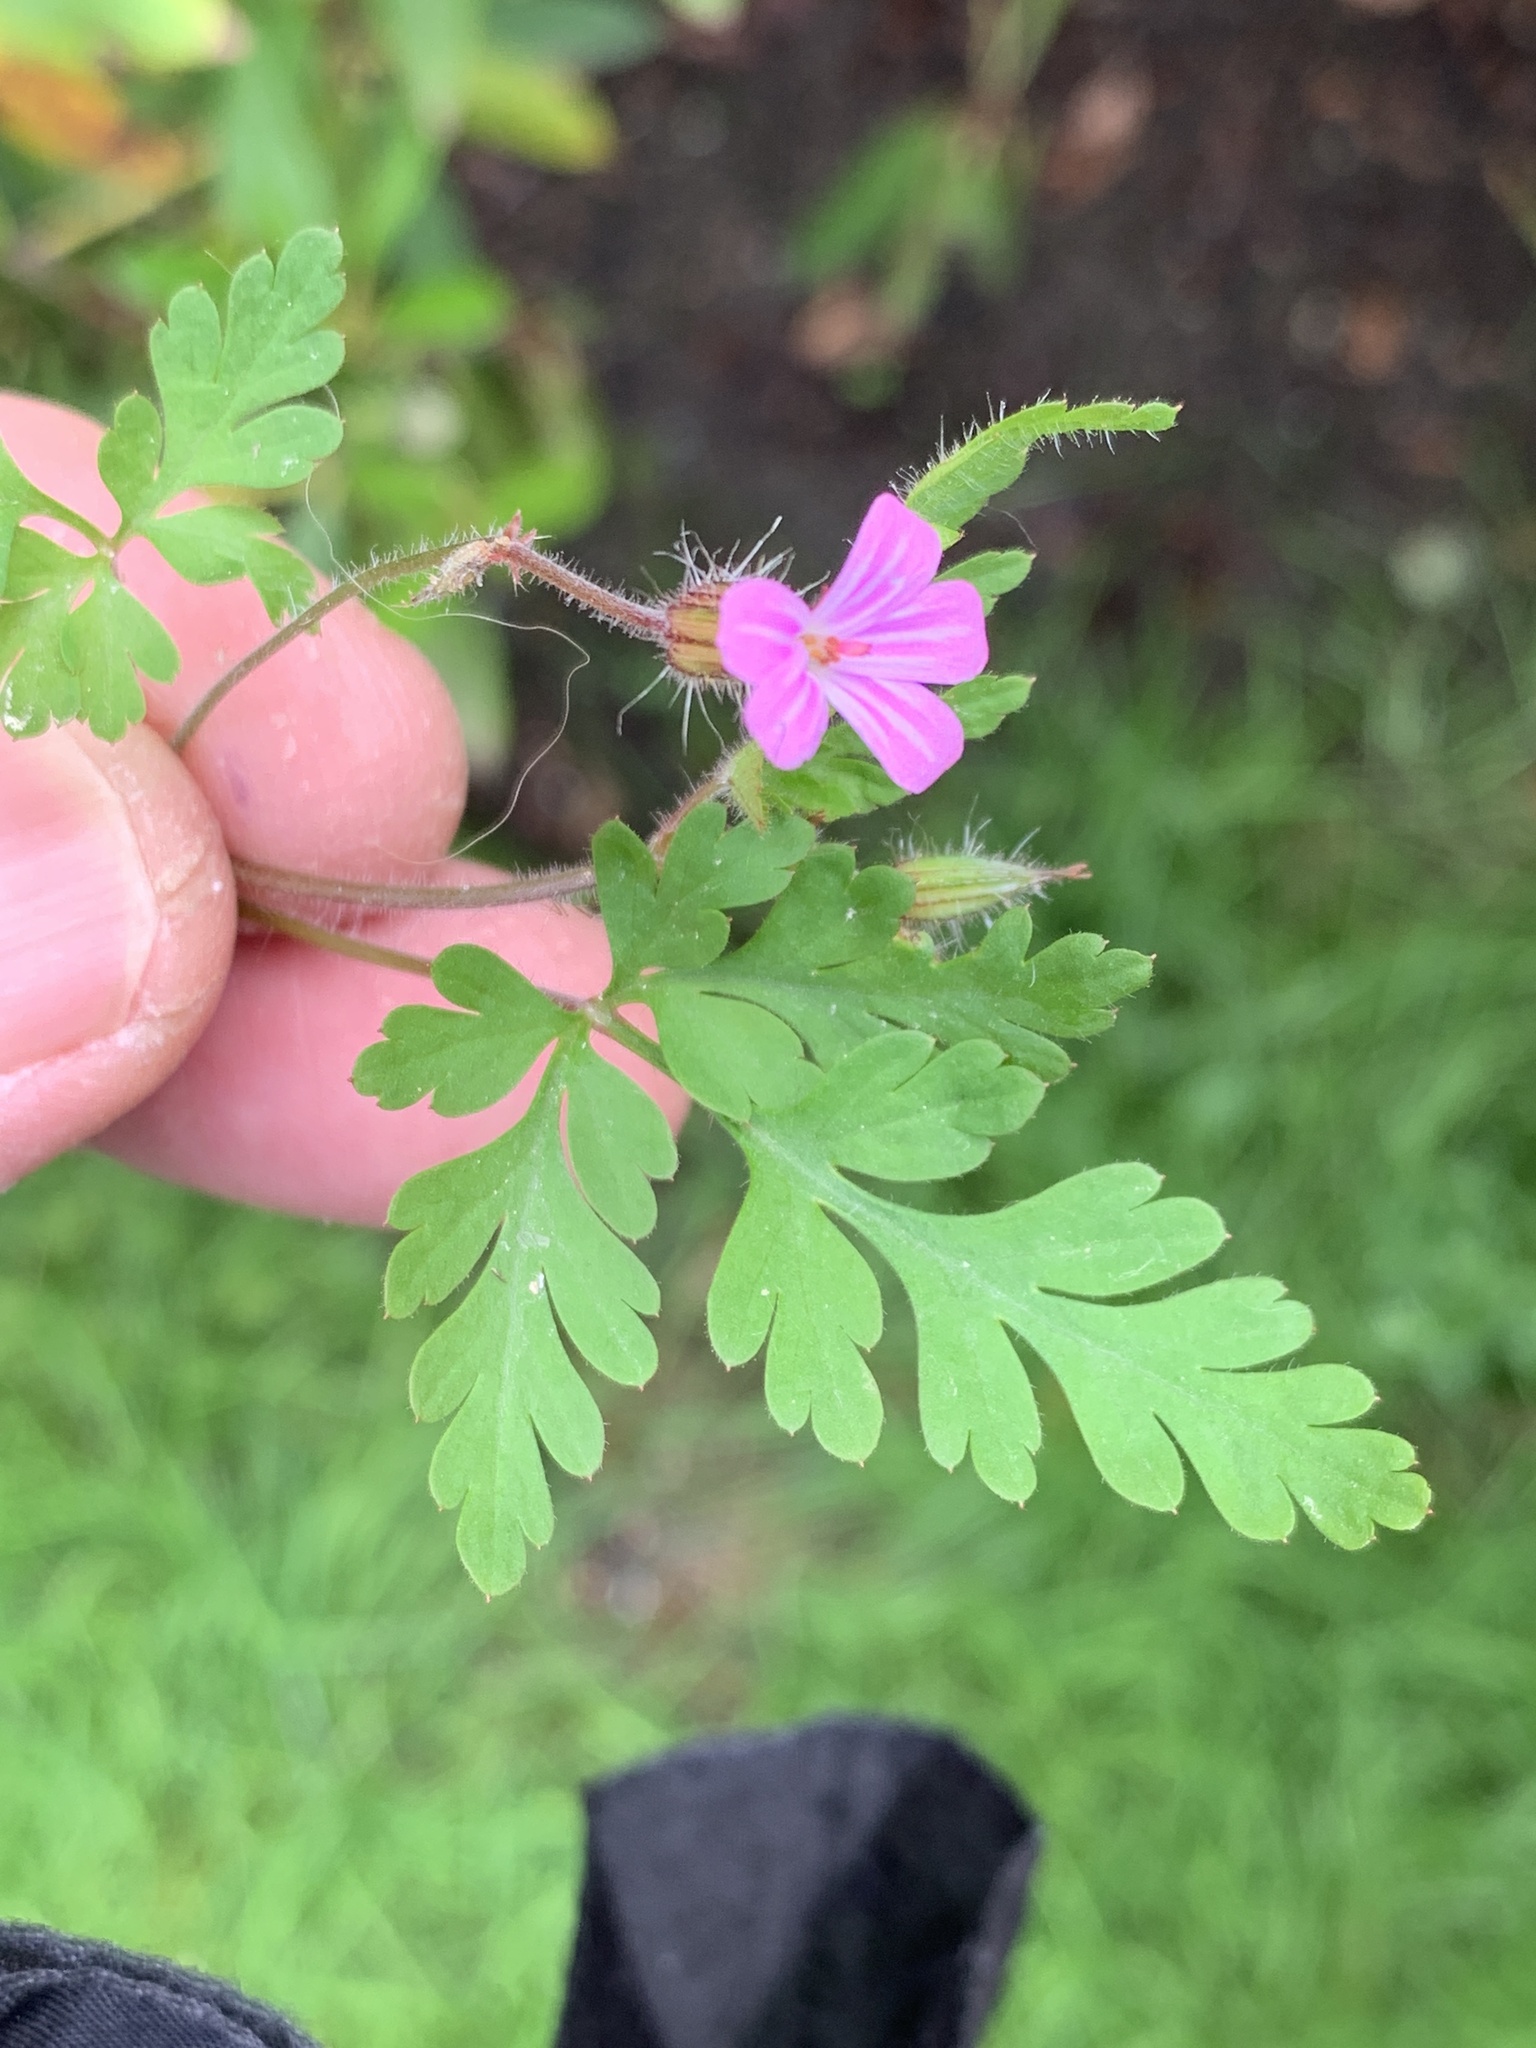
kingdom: Plantae
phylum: Tracheophyta
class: Magnoliopsida
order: Geraniales
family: Geraniaceae
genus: Geranium
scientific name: Geranium robertianum
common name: Herb-robert
